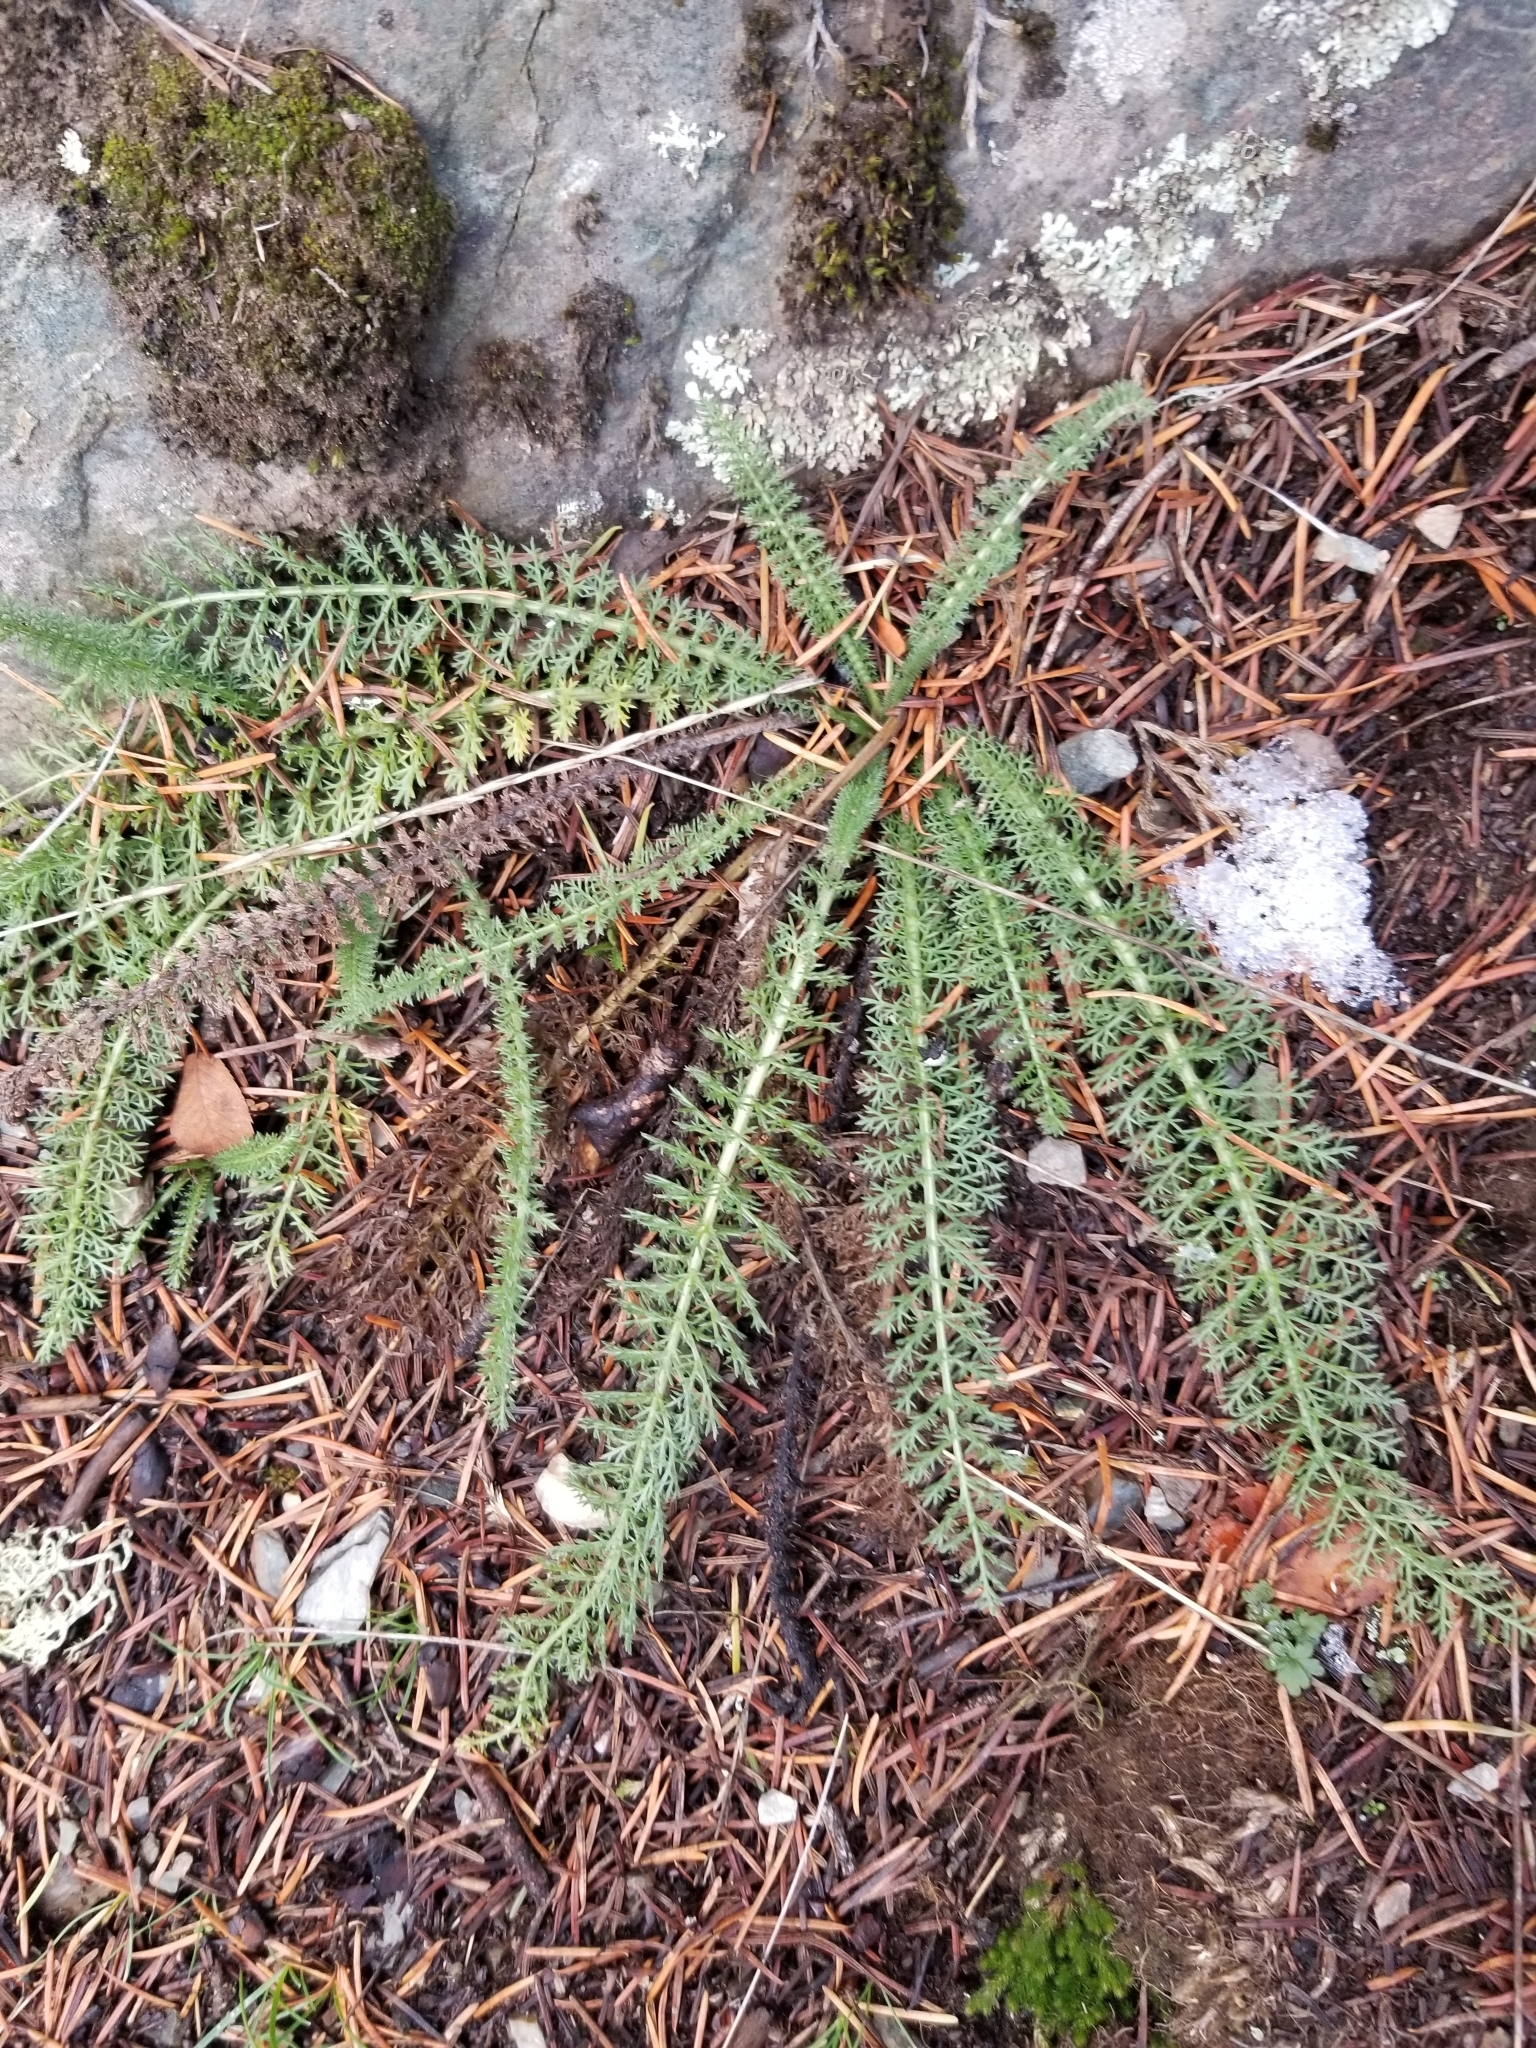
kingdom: Plantae
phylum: Tracheophyta
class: Magnoliopsida
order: Asterales
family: Asteraceae
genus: Achillea
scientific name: Achillea millefolium
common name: Yarrow
